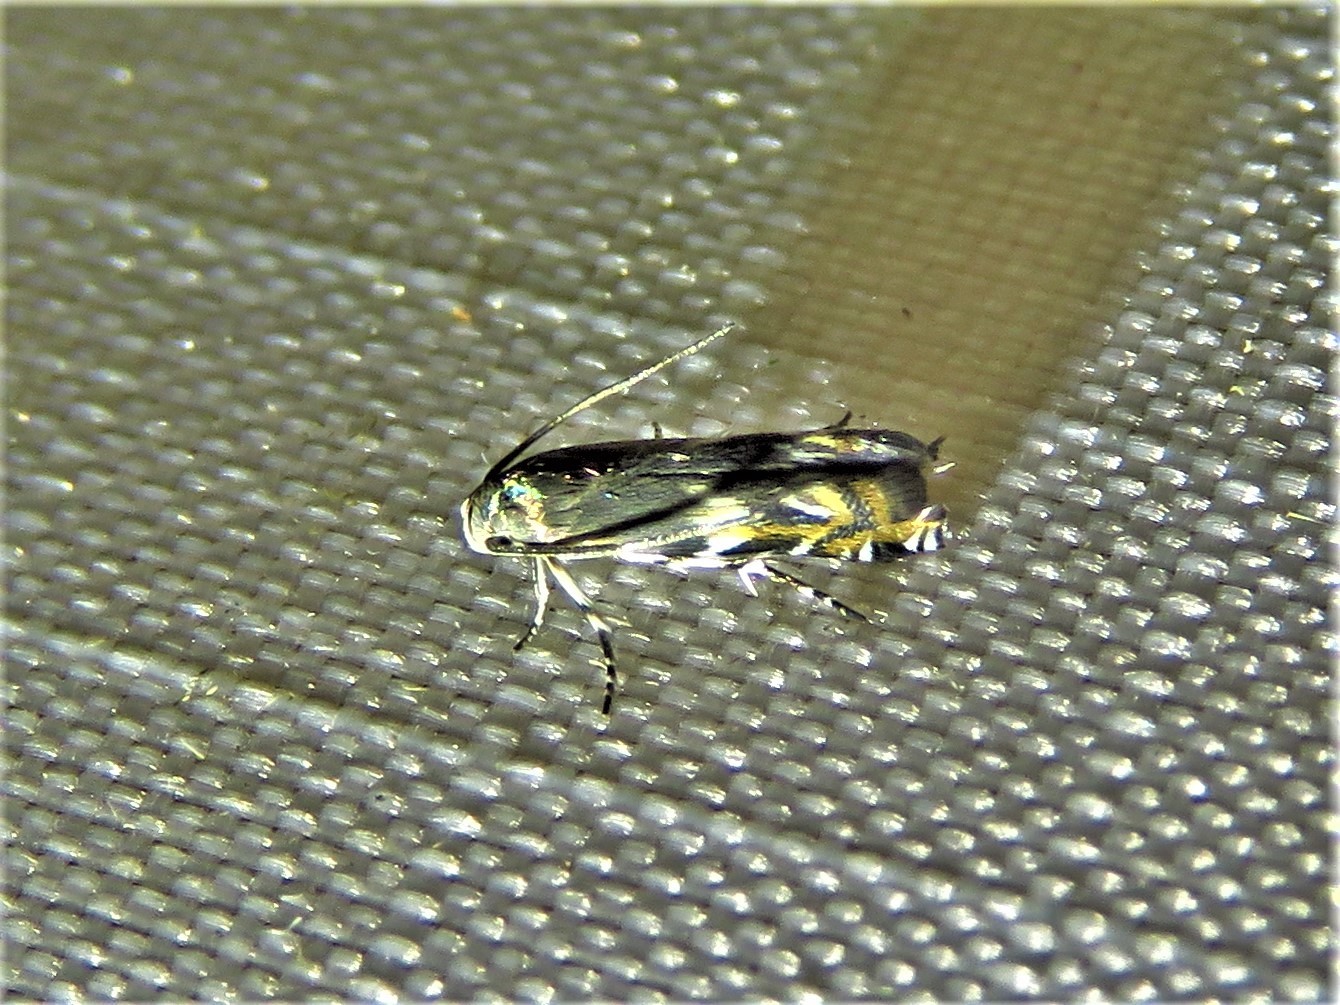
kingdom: Animalia
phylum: Arthropoda
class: Insecta
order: Lepidoptera
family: Gelechiidae
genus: Calliprora
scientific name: Calliprora sexstrigella
